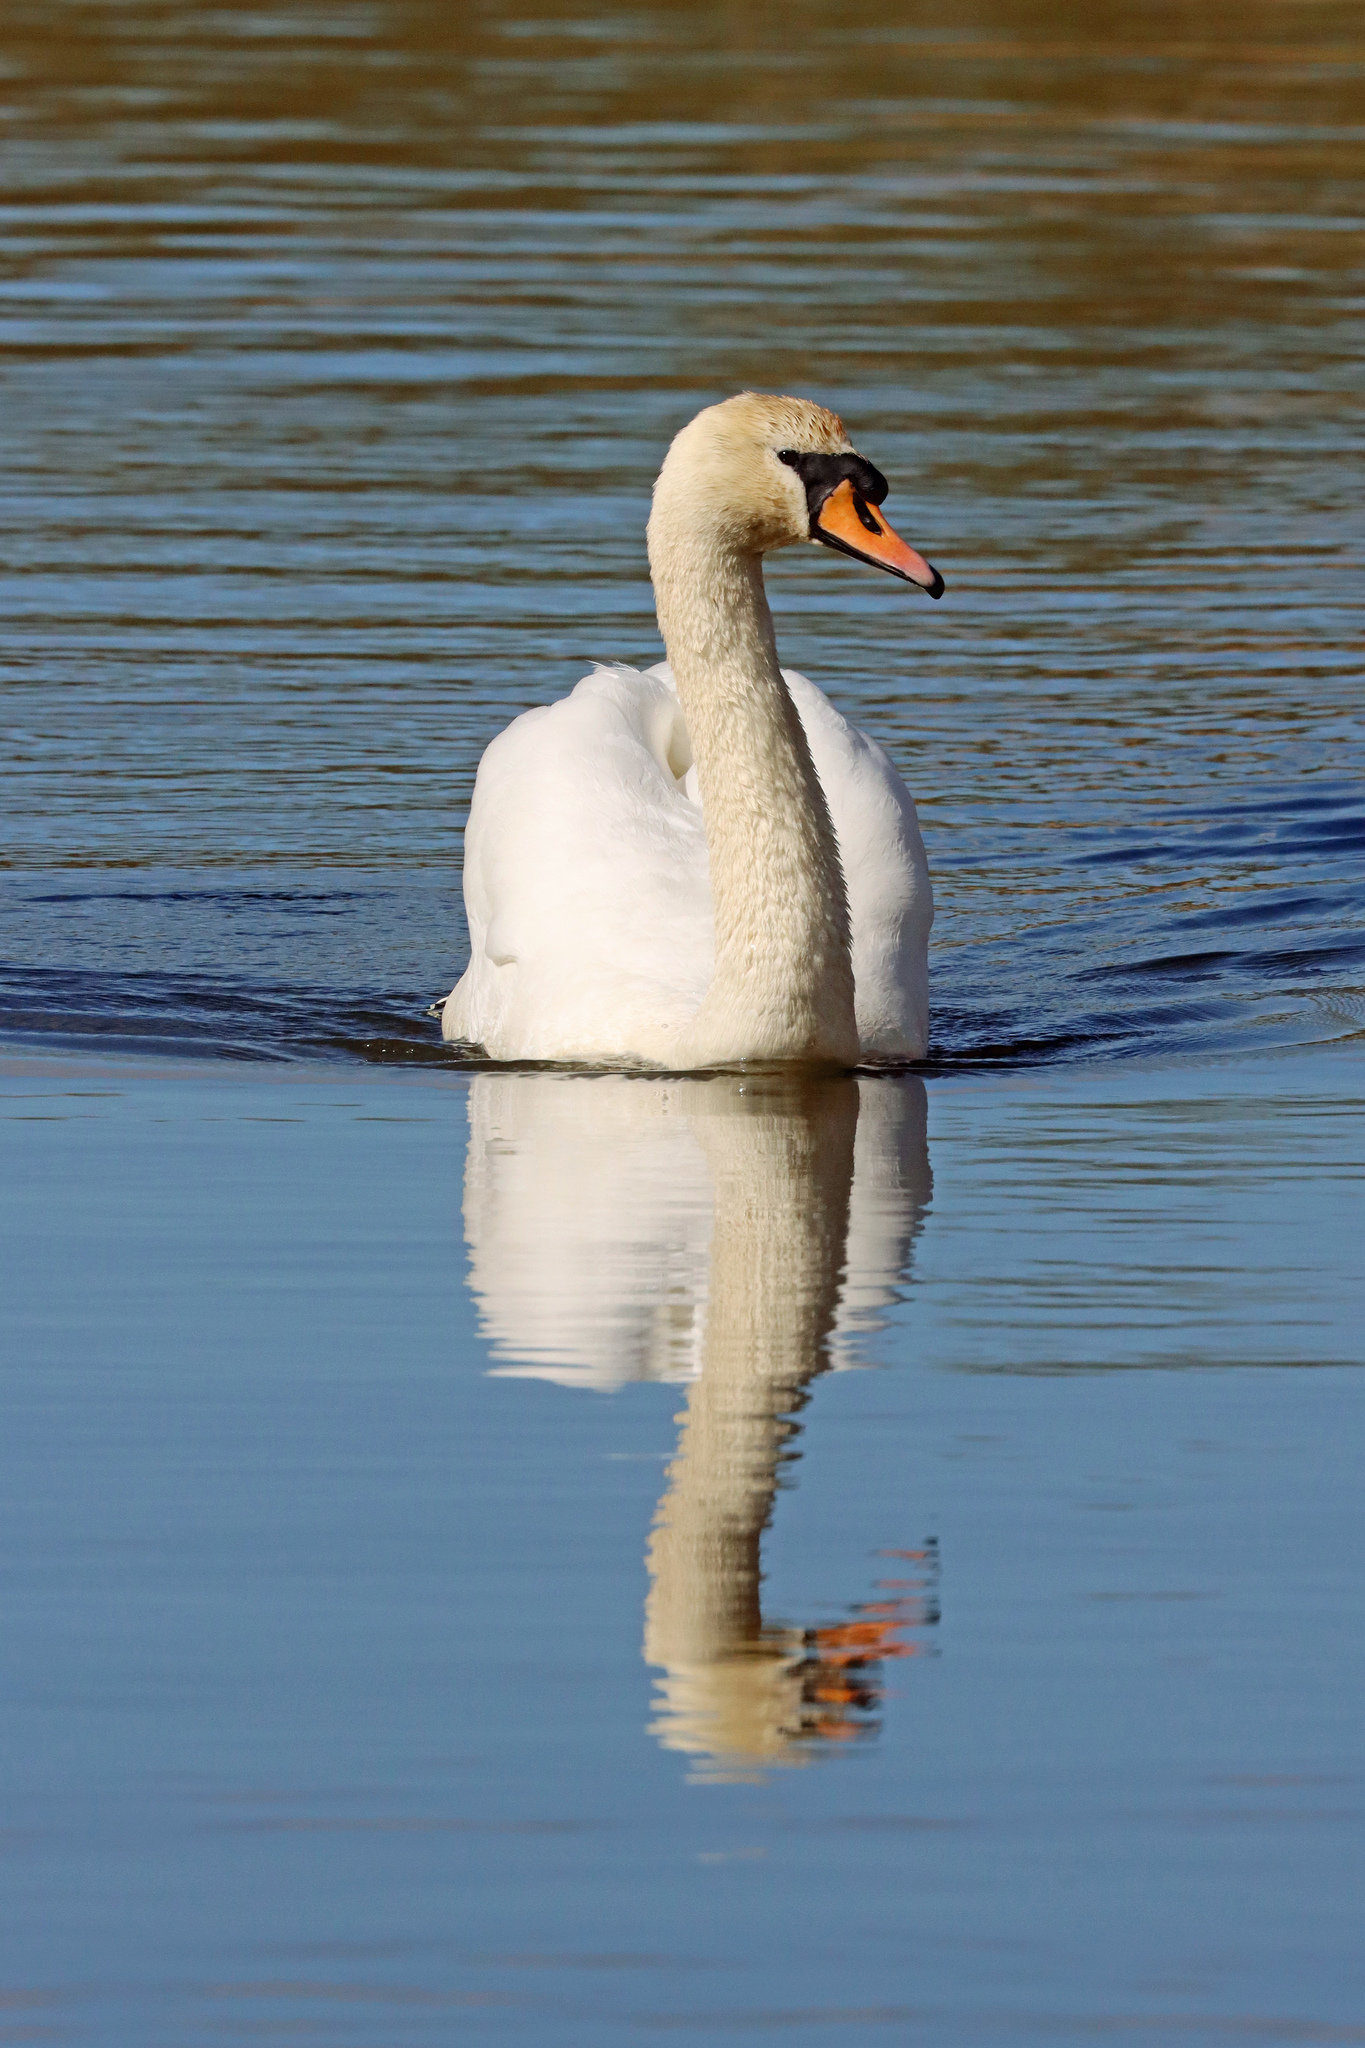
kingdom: Animalia
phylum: Chordata
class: Aves
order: Anseriformes
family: Anatidae
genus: Cygnus
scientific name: Cygnus olor
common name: Mute swan
